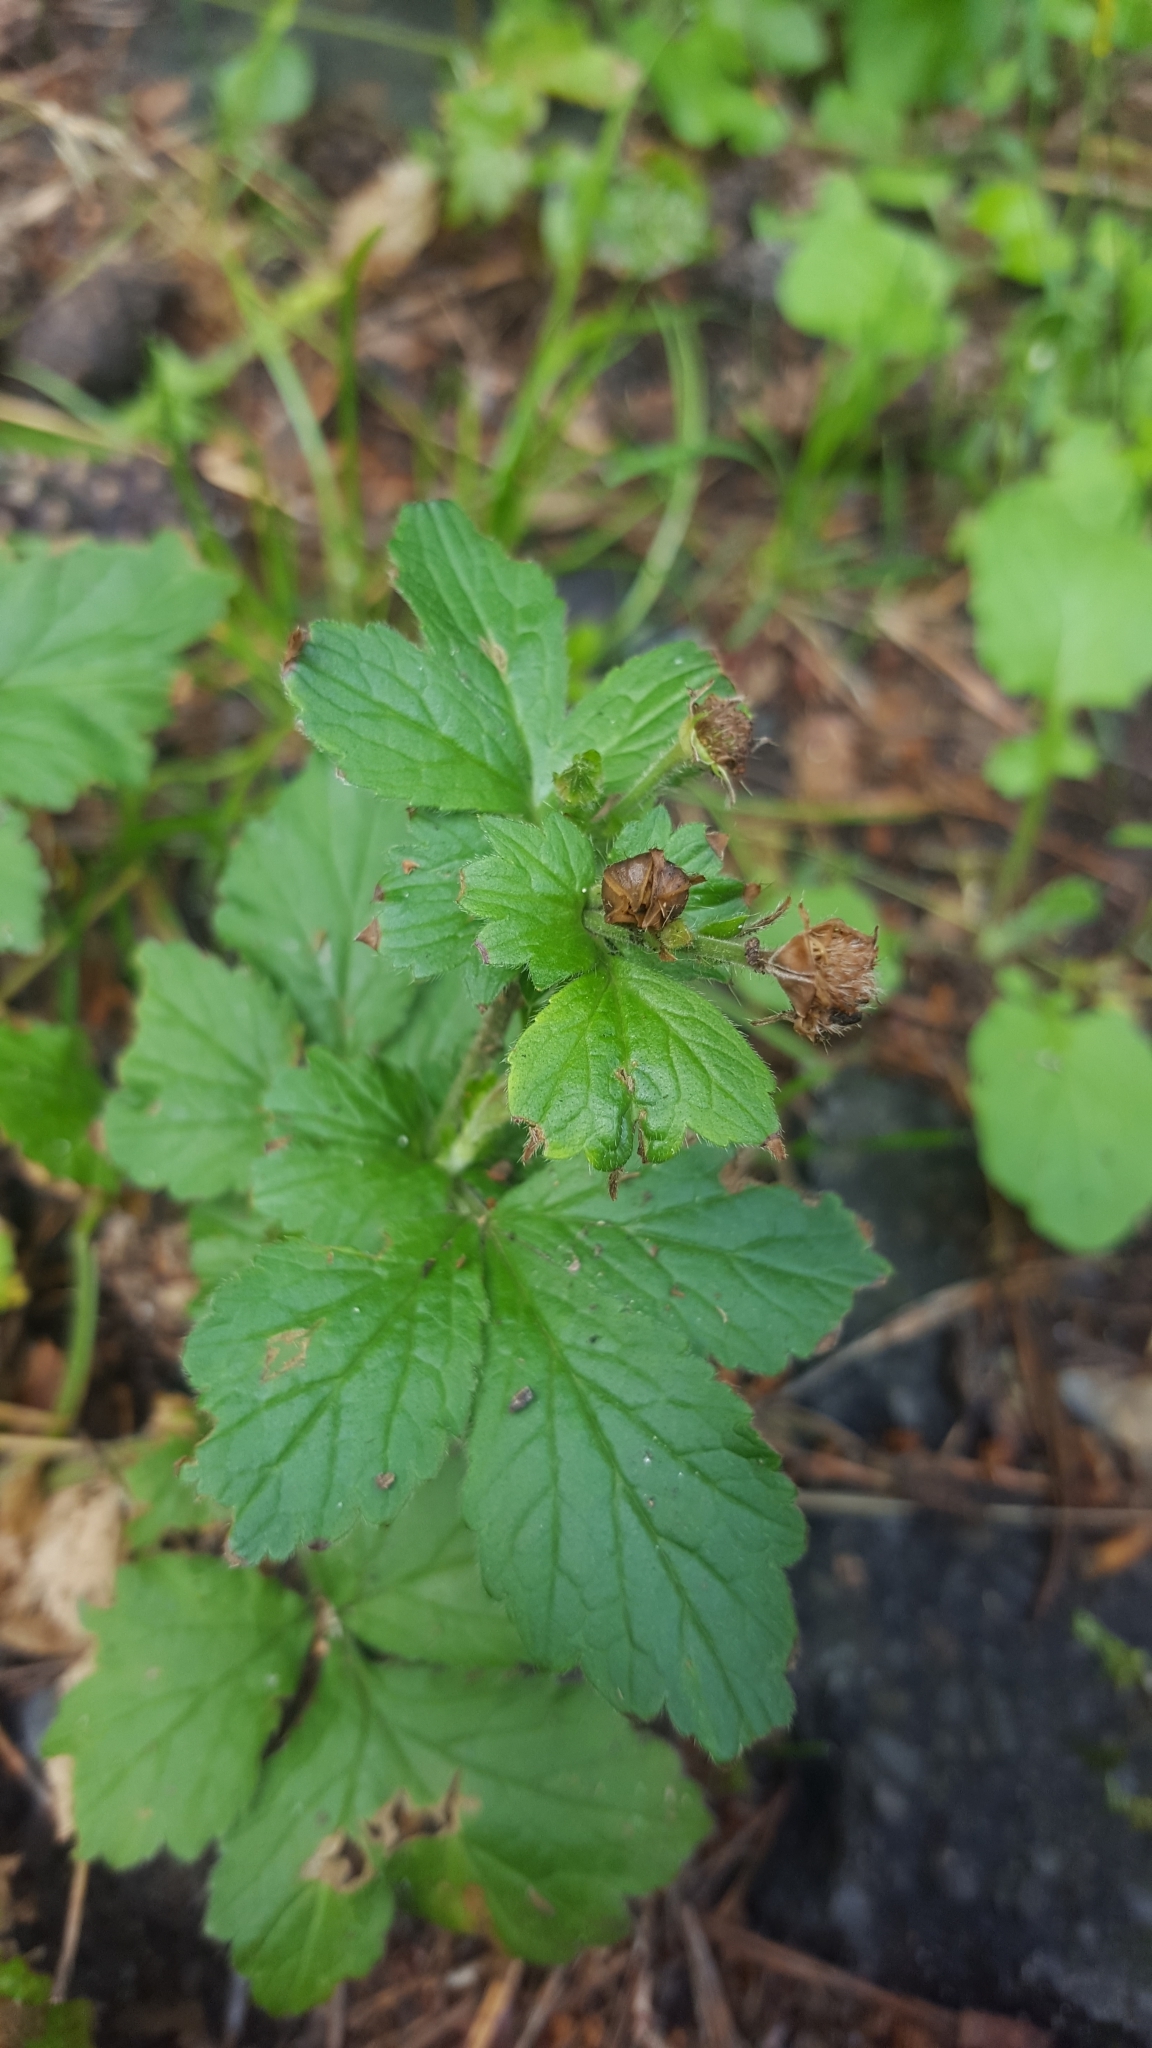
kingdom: Plantae
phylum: Tracheophyta
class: Magnoliopsida
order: Rosales
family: Rosaceae
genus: Geum
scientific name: Geum urbanum
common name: Wood avens
